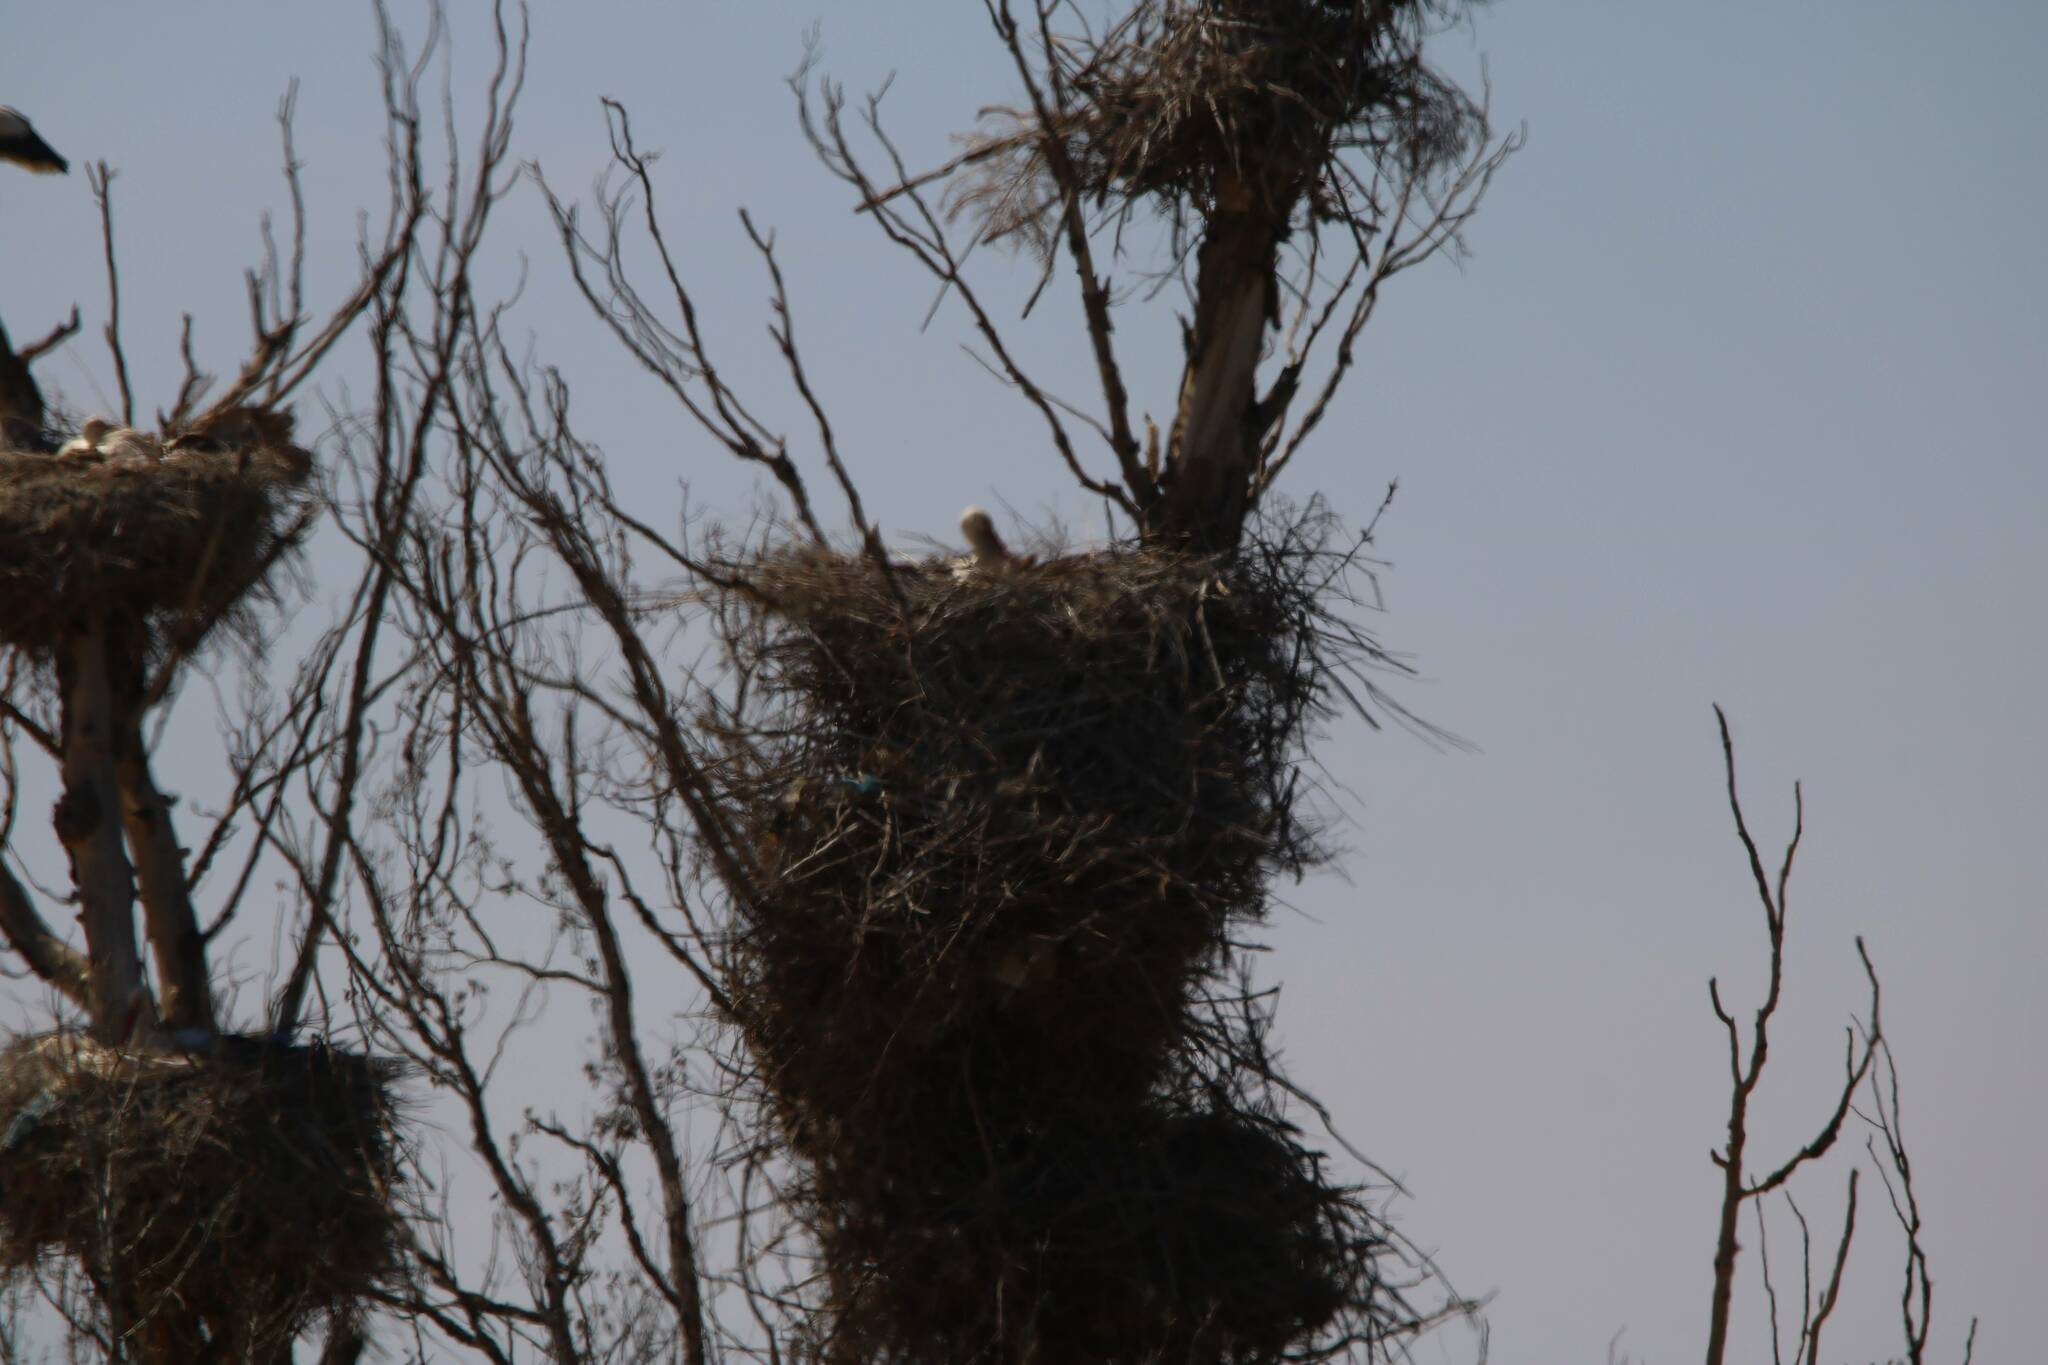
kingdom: Animalia
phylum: Chordata
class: Aves
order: Ciconiiformes
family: Ciconiidae
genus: Ciconia
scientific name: Ciconia ciconia
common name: White stork
